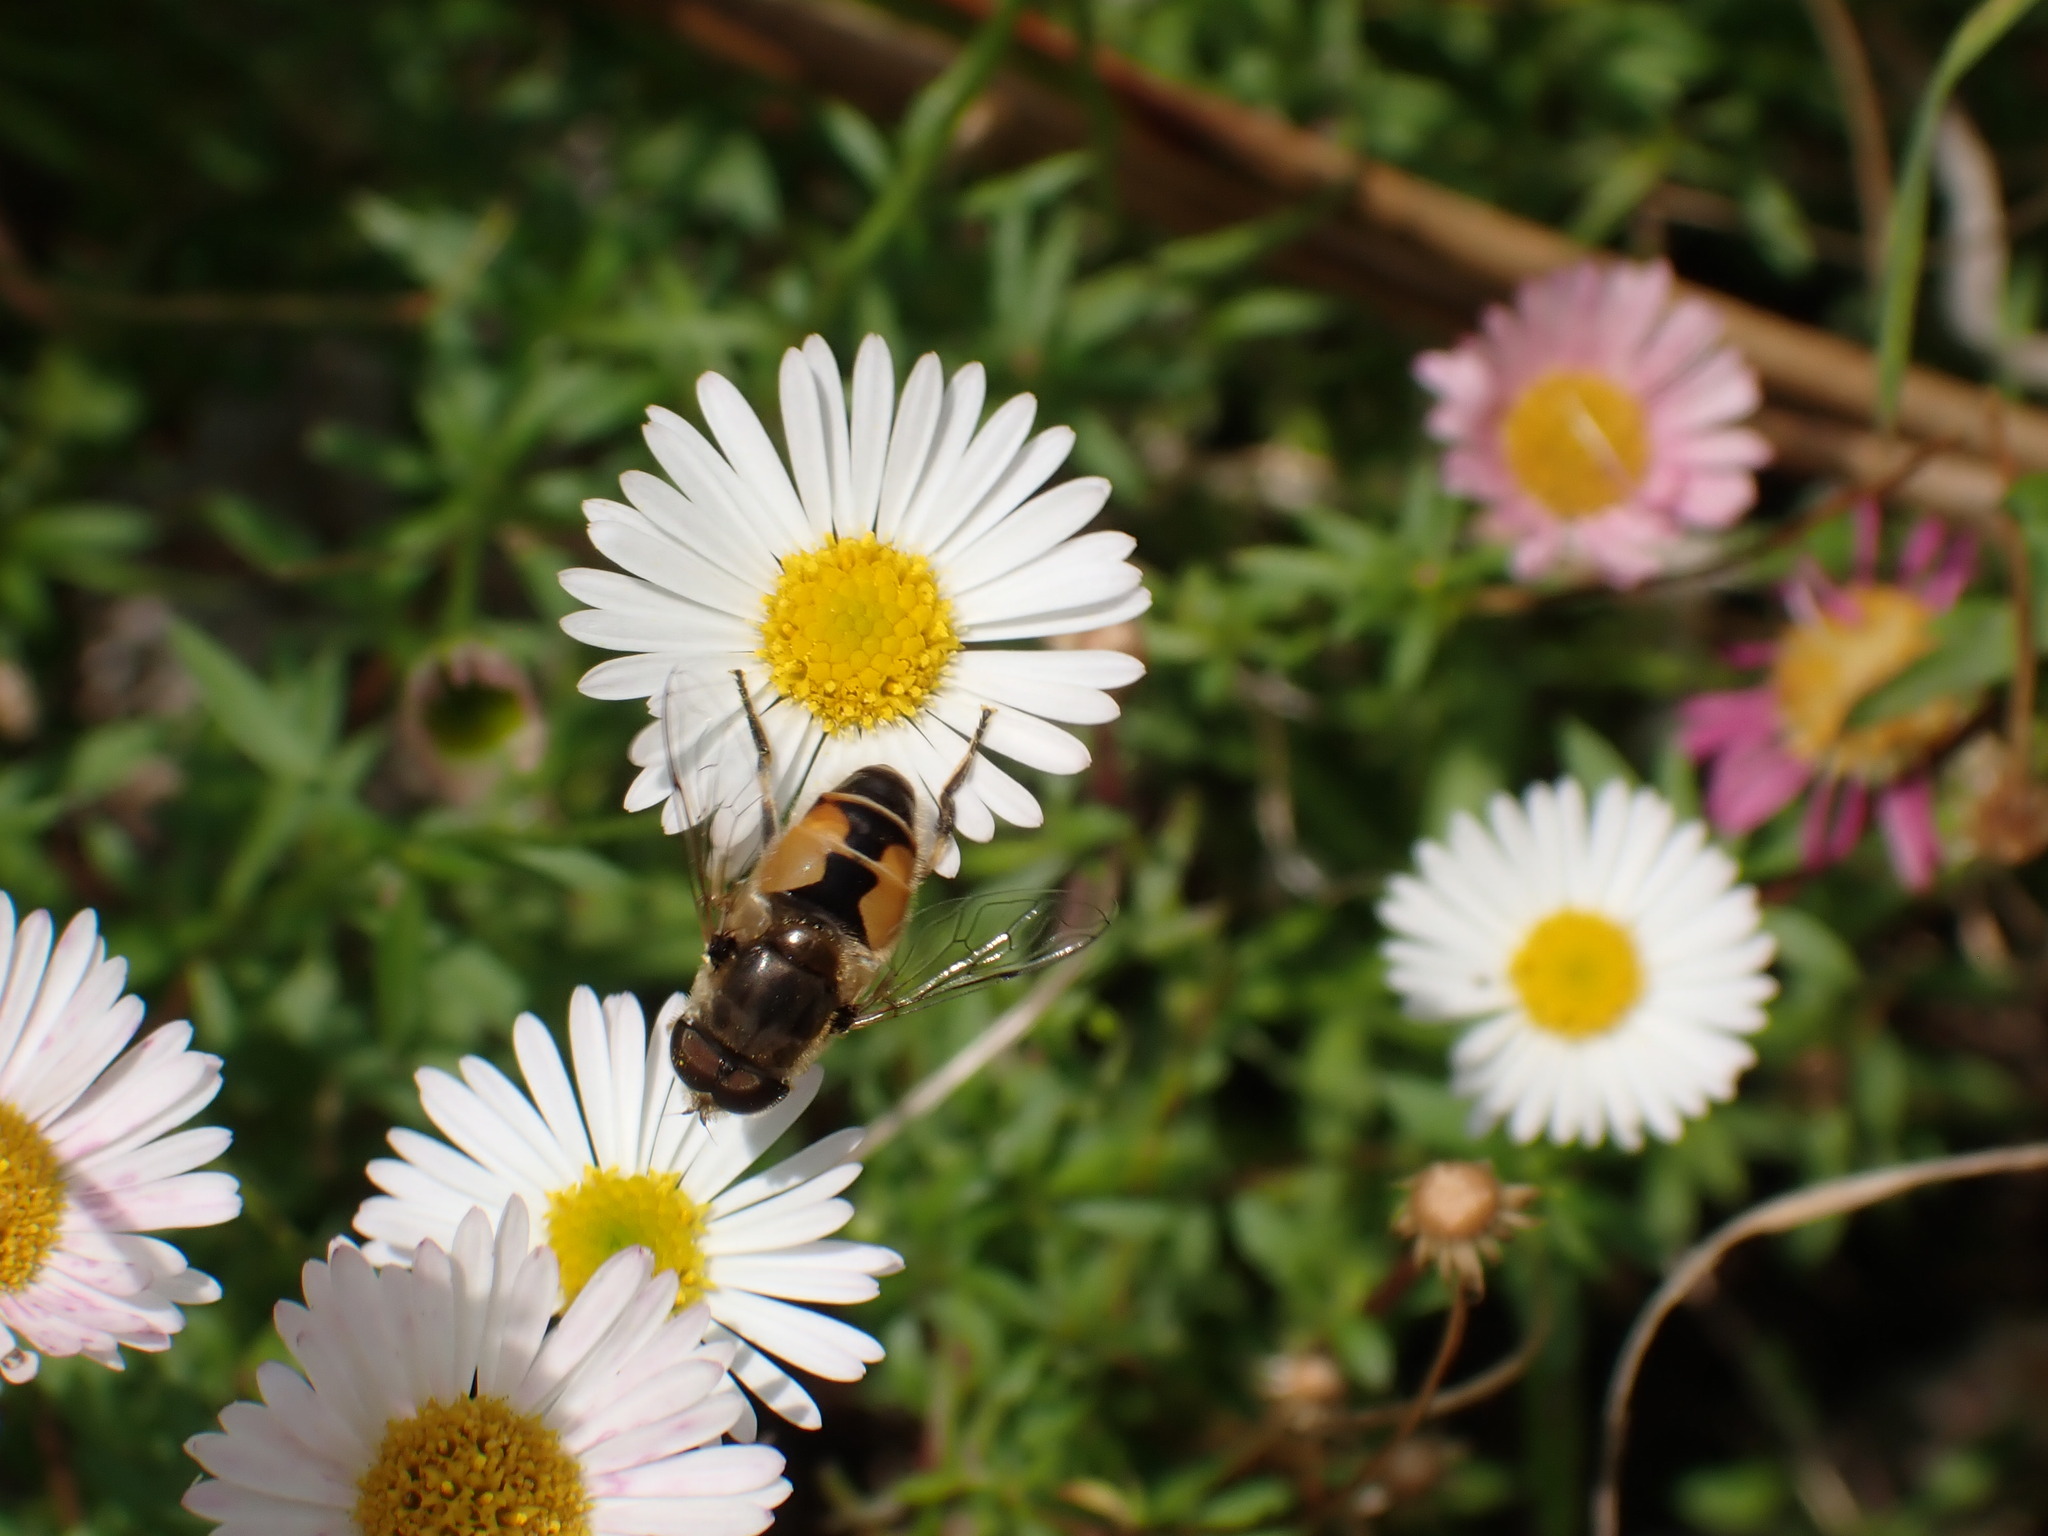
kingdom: Animalia
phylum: Arthropoda
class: Insecta
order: Diptera
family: Syrphidae
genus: Eristalis
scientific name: Eristalis arbustorum
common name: Hover fly
